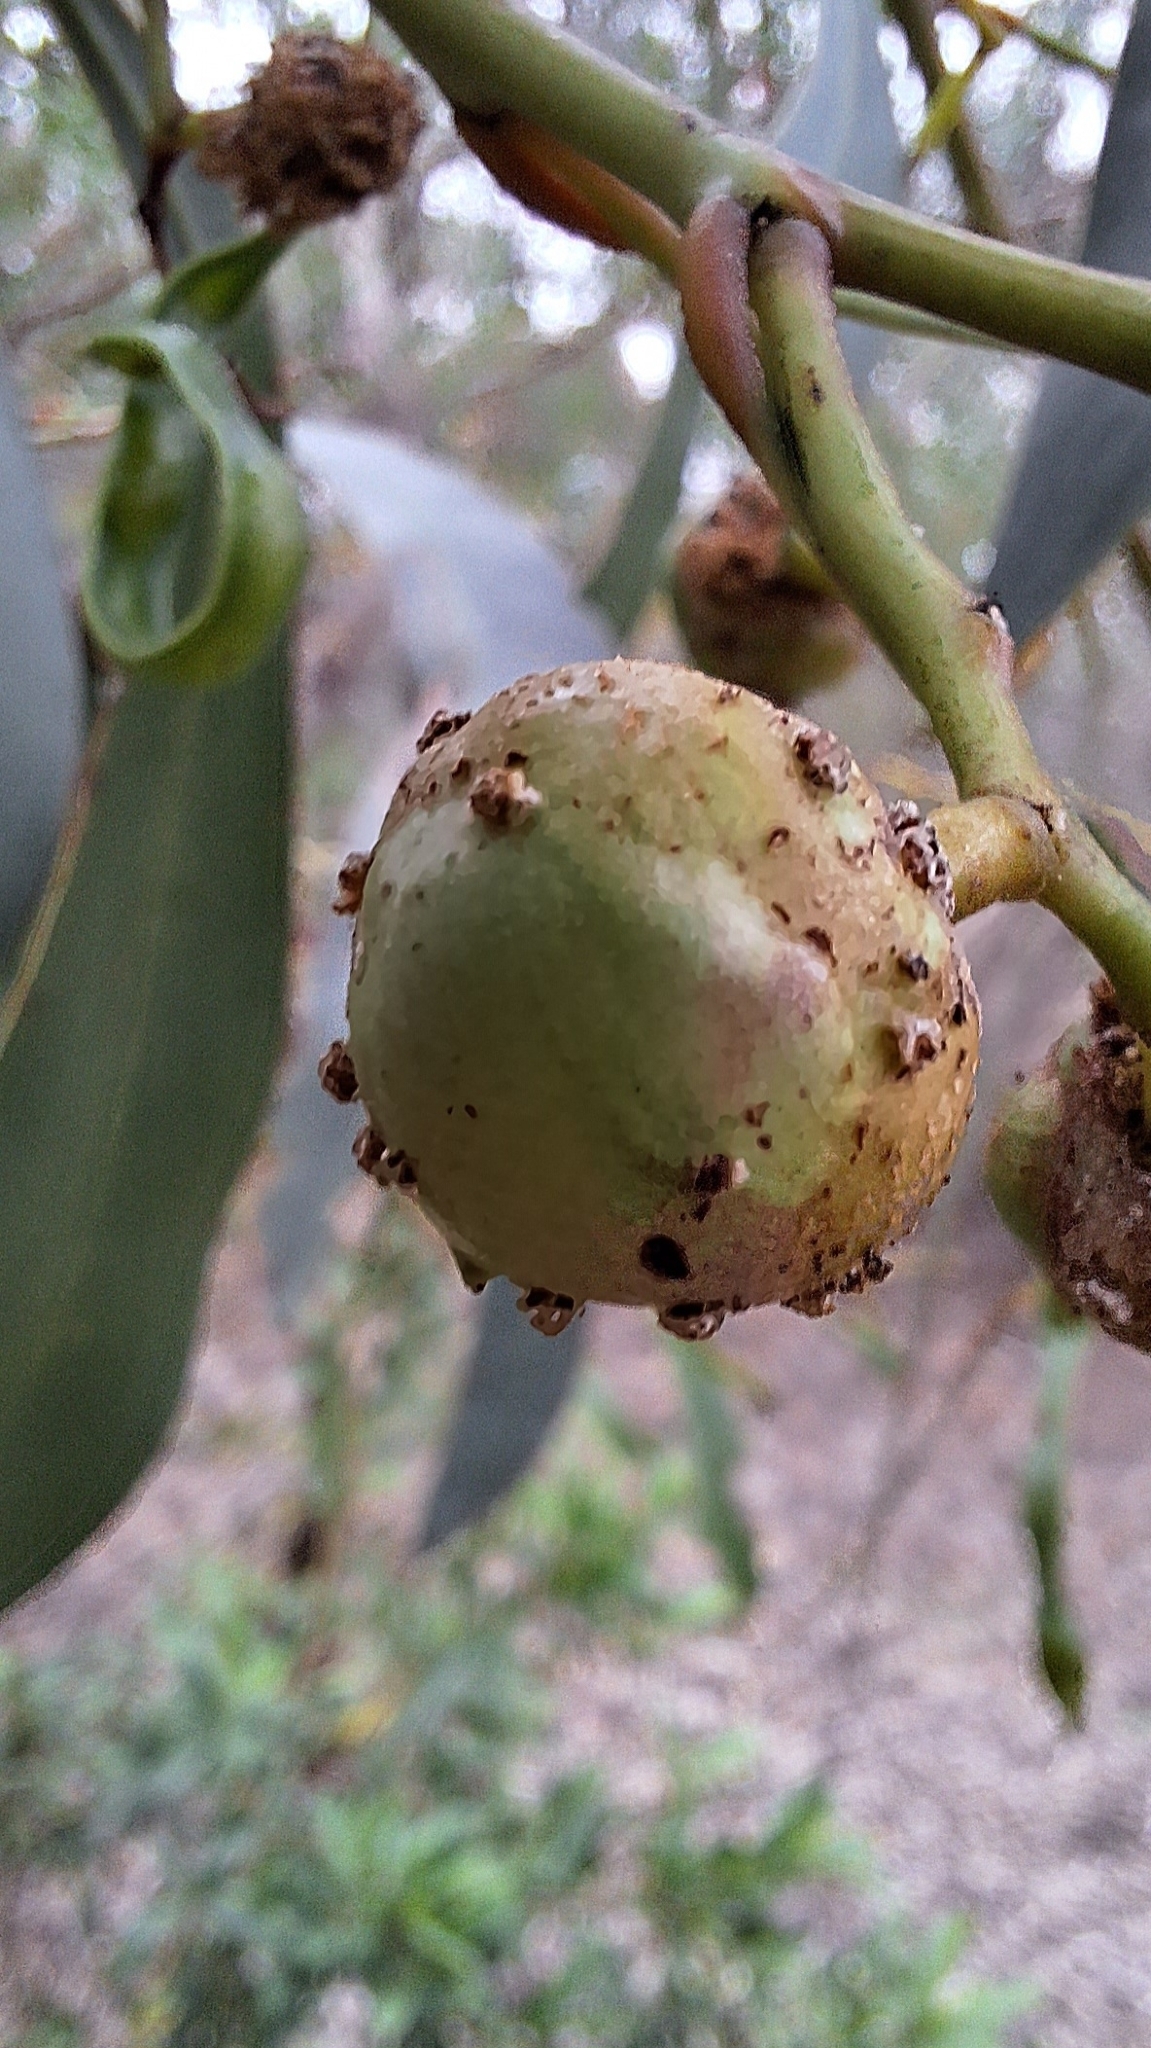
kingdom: Animalia
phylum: Arthropoda
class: Insecta
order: Hymenoptera
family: Pteromalidae
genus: Trichilogaster
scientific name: Trichilogaster signiventris
